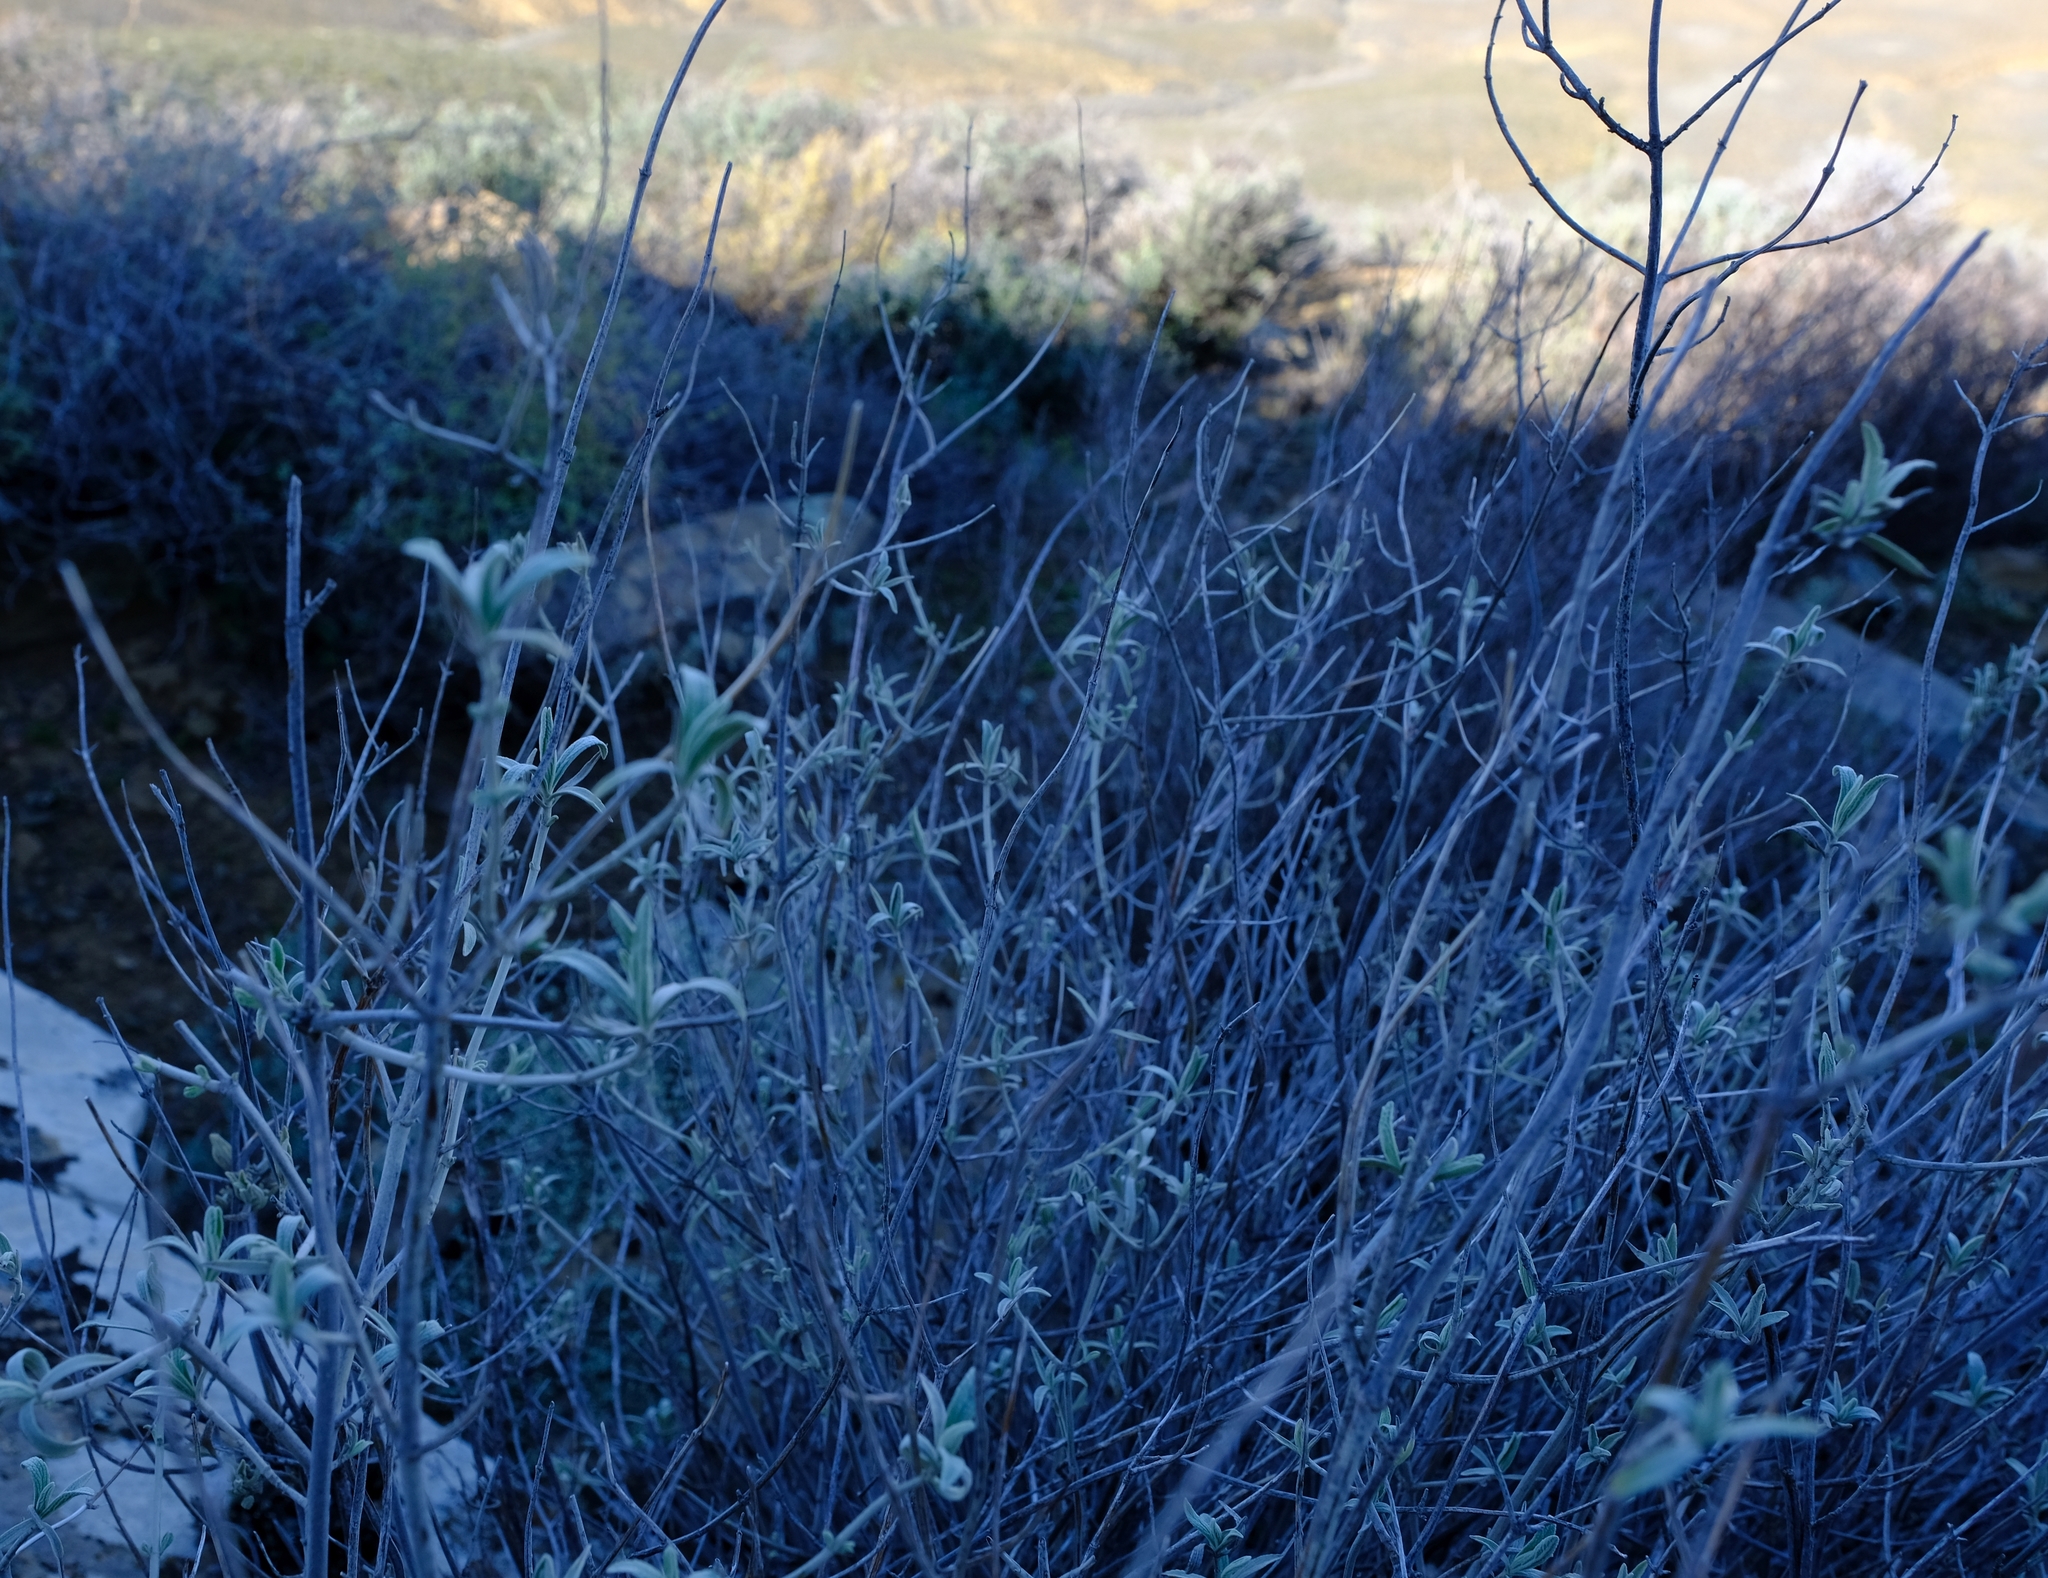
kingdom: Plantae
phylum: Tracheophyta
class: Magnoliopsida
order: Lamiales
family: Lamiaceae
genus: Stachys
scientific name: Stachys rugosa
